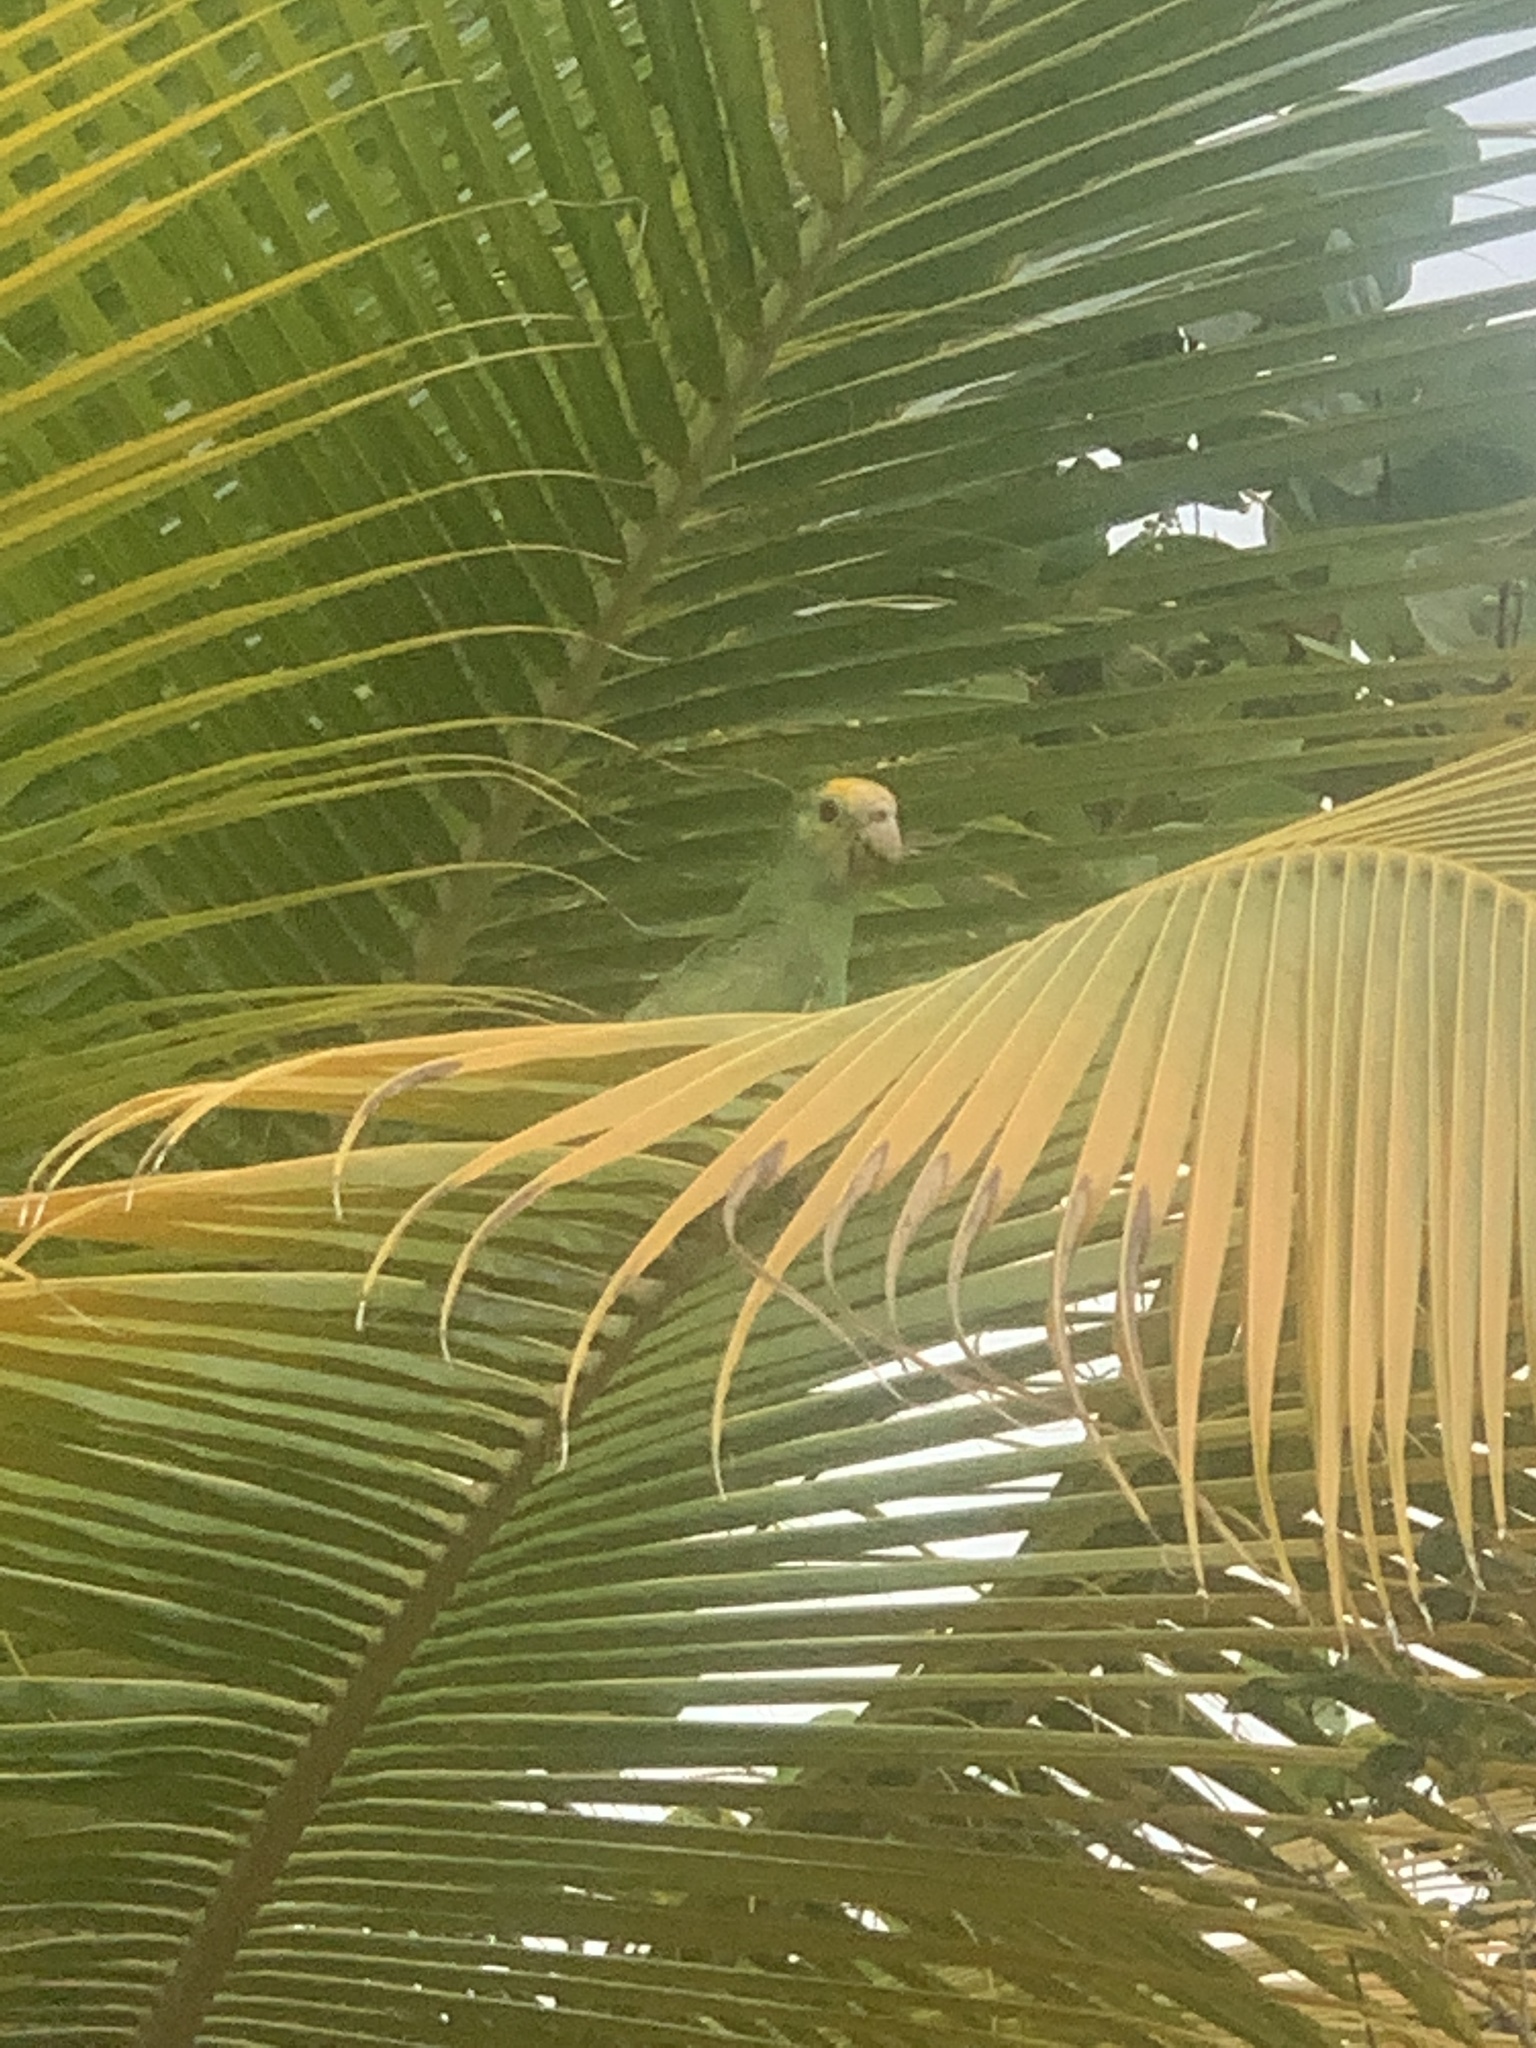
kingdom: Animalia
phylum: Chordata
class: Aves
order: Psittaciformes
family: Psittacidae
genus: Amazona
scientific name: Amazona barbadensis
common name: Yellow-shouldered amazon
